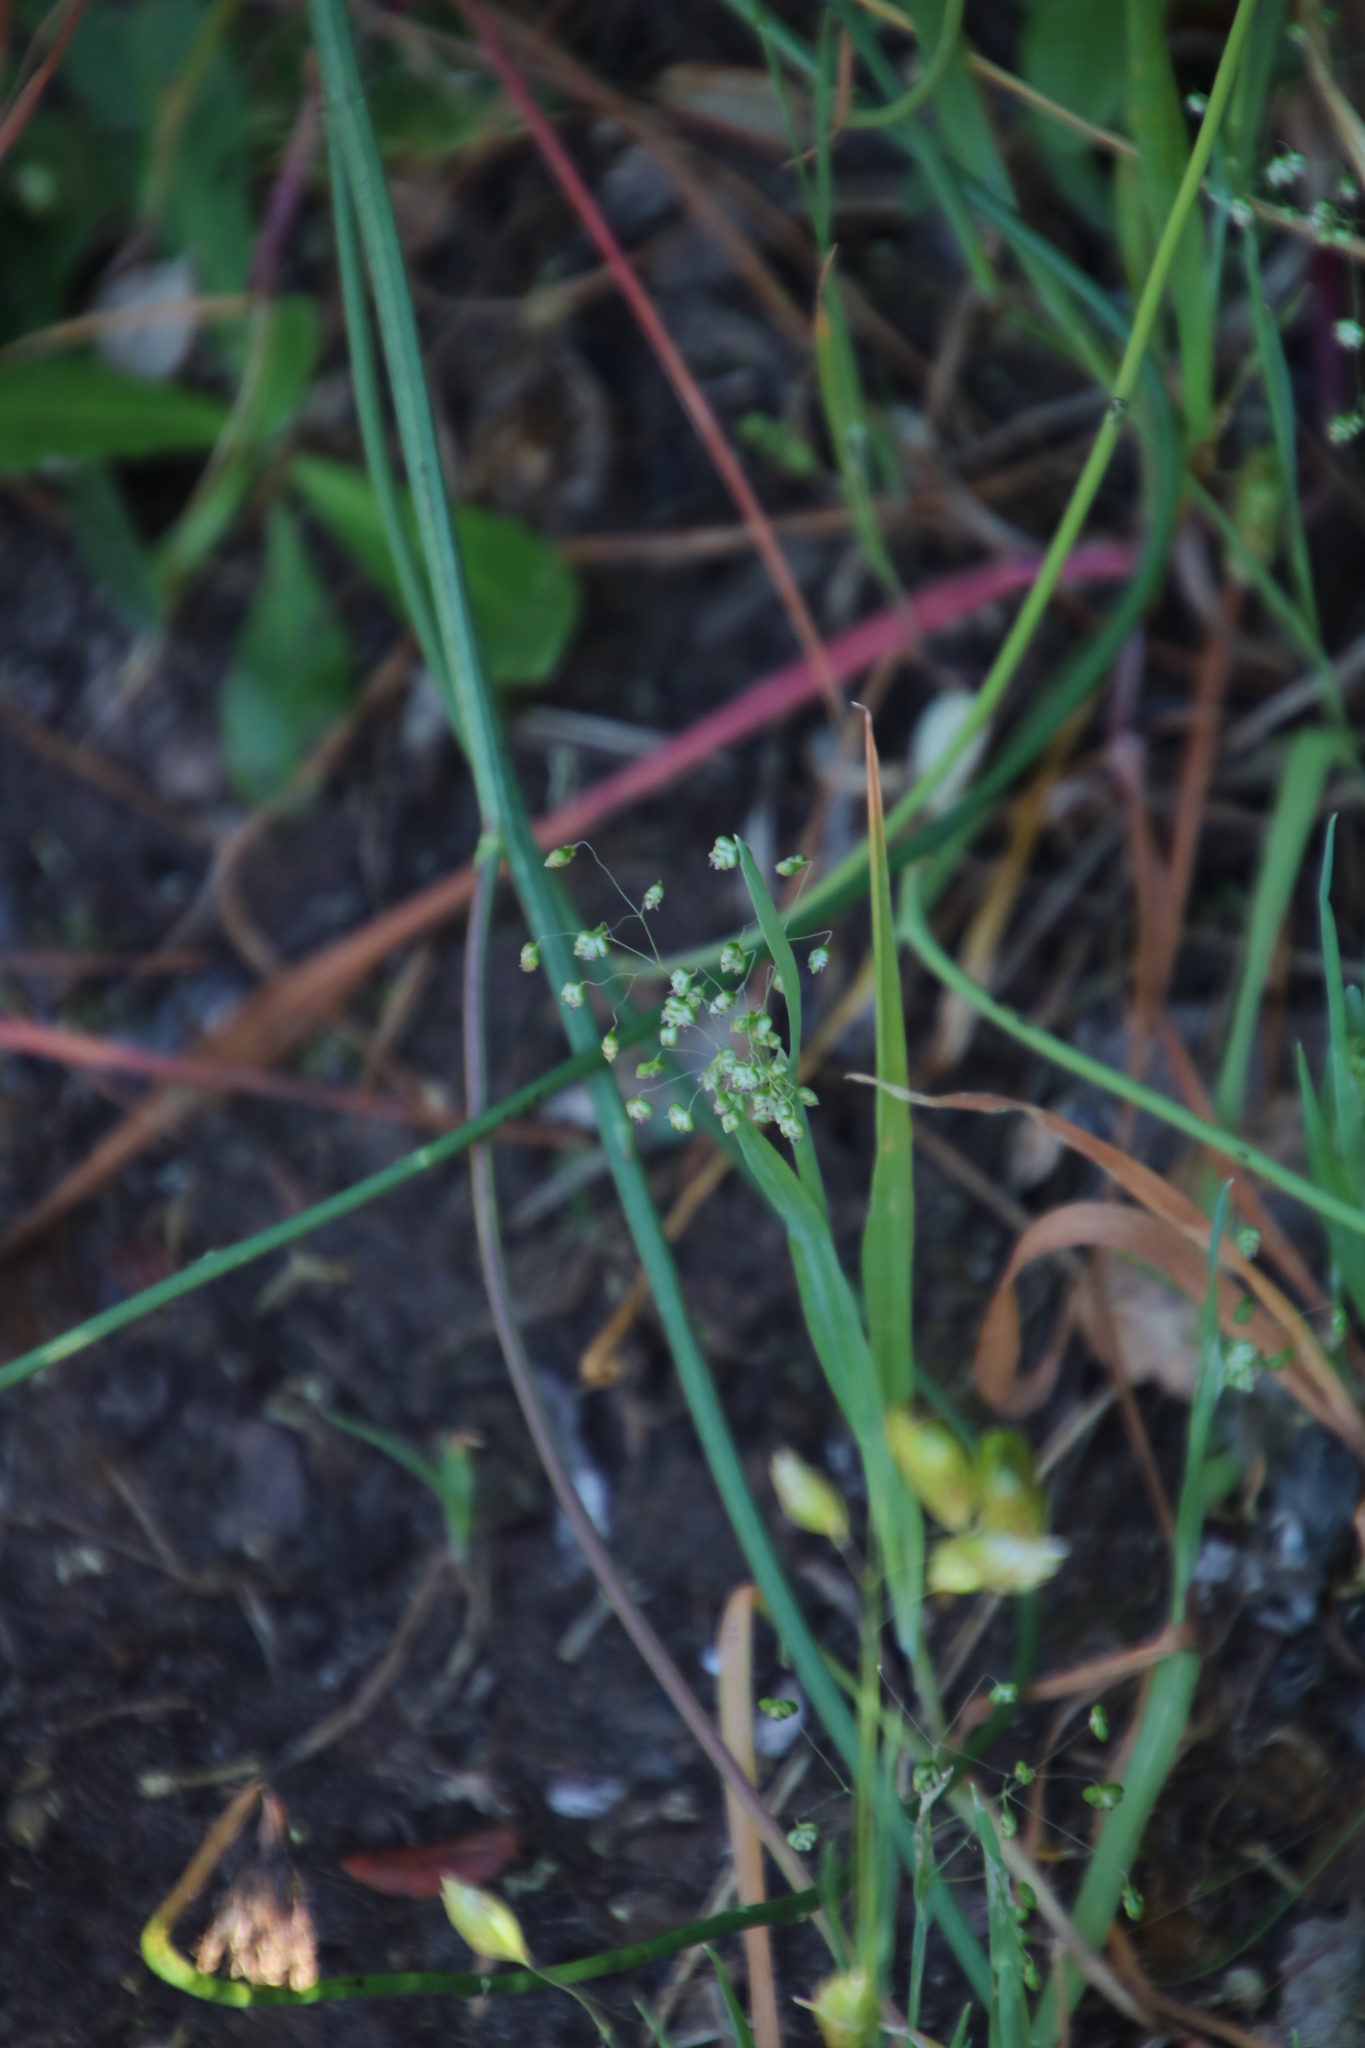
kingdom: Plantae
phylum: Tracheophyta
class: Liliopsida
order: Poales
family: Poaceae
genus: Briza
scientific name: Briza minor
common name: Lesser quaking-grass
